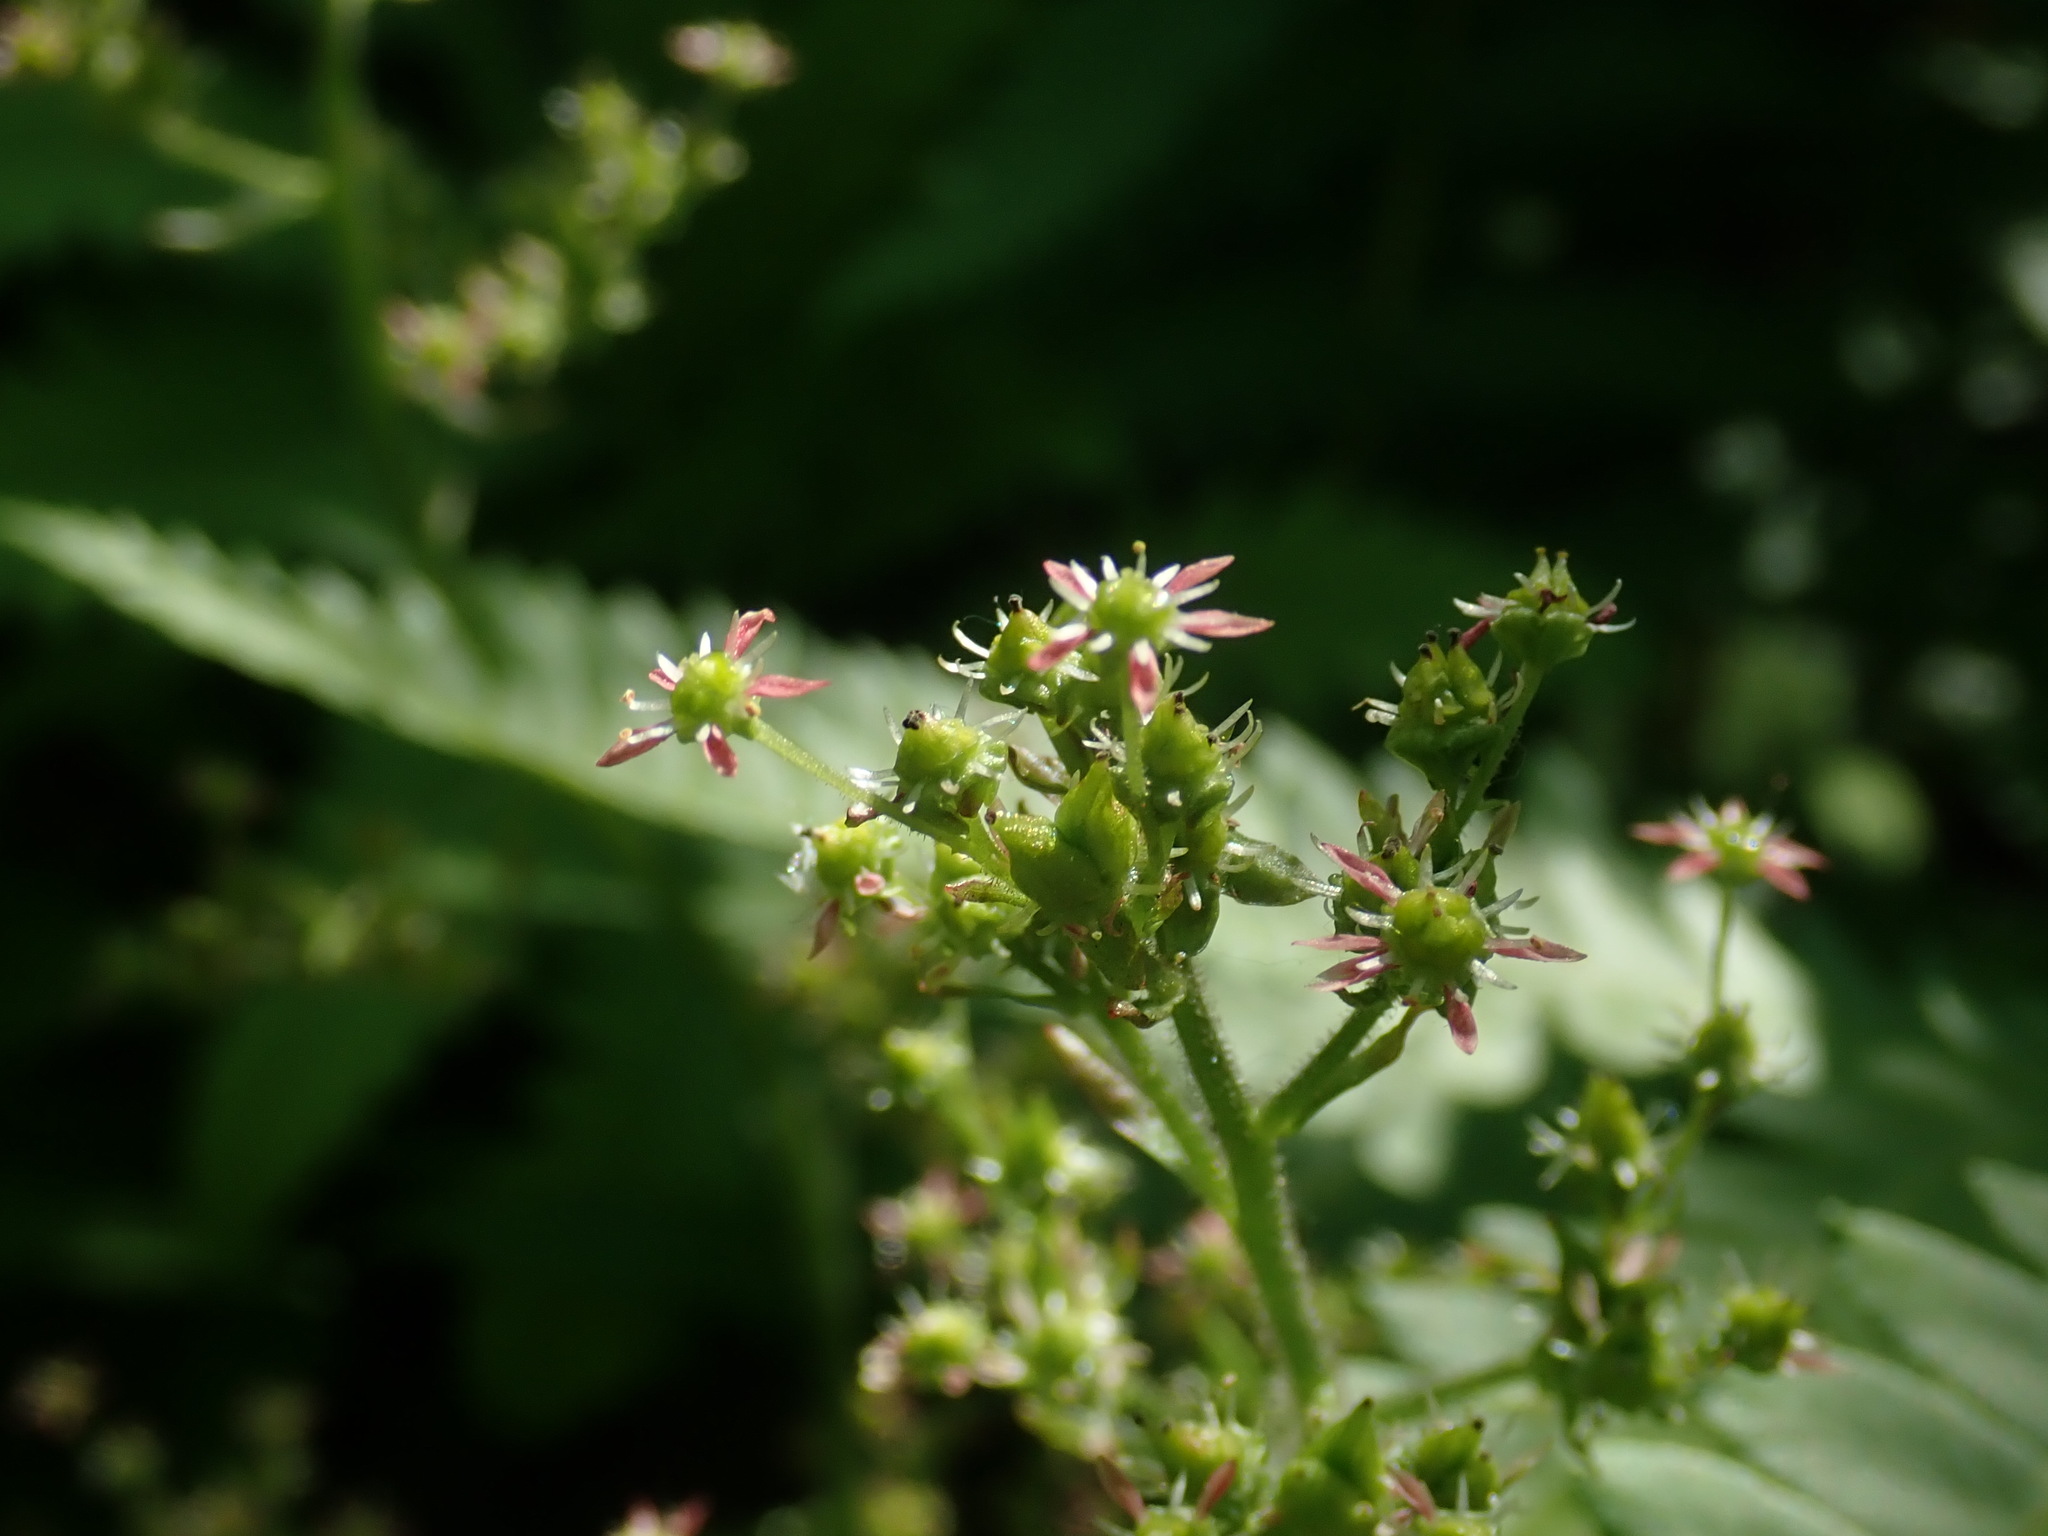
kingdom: Plantae
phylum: Tracheophyta
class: Magnoliopsida
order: Saxifragales
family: Saxifragaceae
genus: Micranthes
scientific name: Micranthes pensylvanica
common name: Marsh saxifrage
